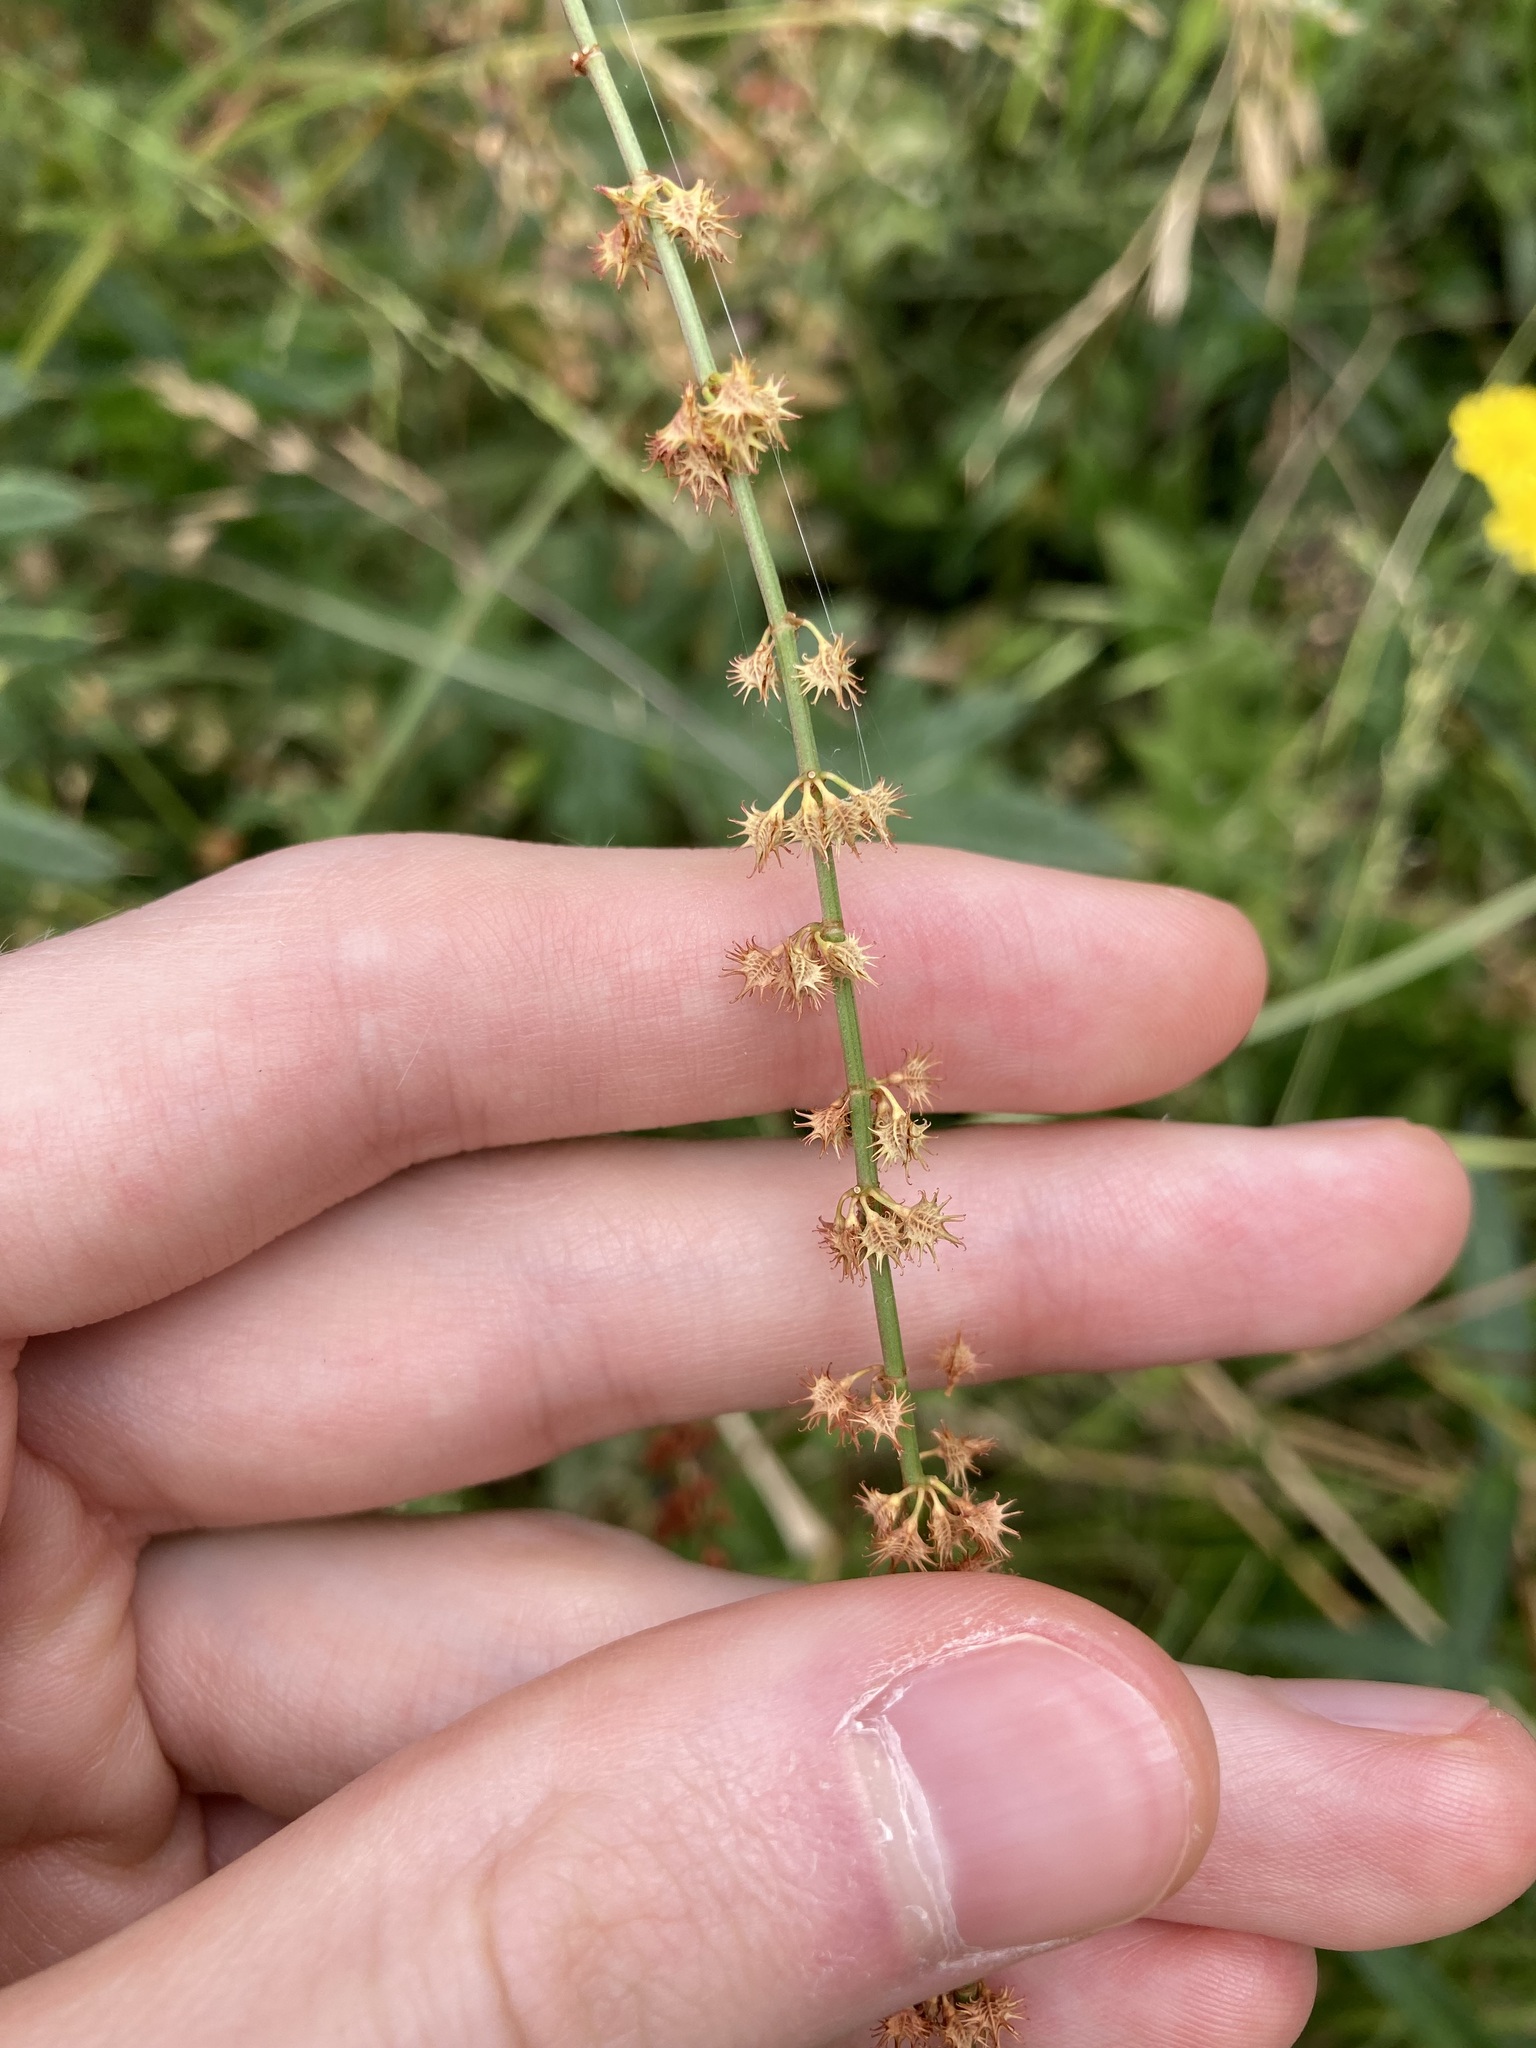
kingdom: Plantae
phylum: Tracheophyta
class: Magnoliopsida
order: Caryophyllales
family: Polygonaceae
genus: Rumex
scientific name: Rumex brownii
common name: Hooked dock
